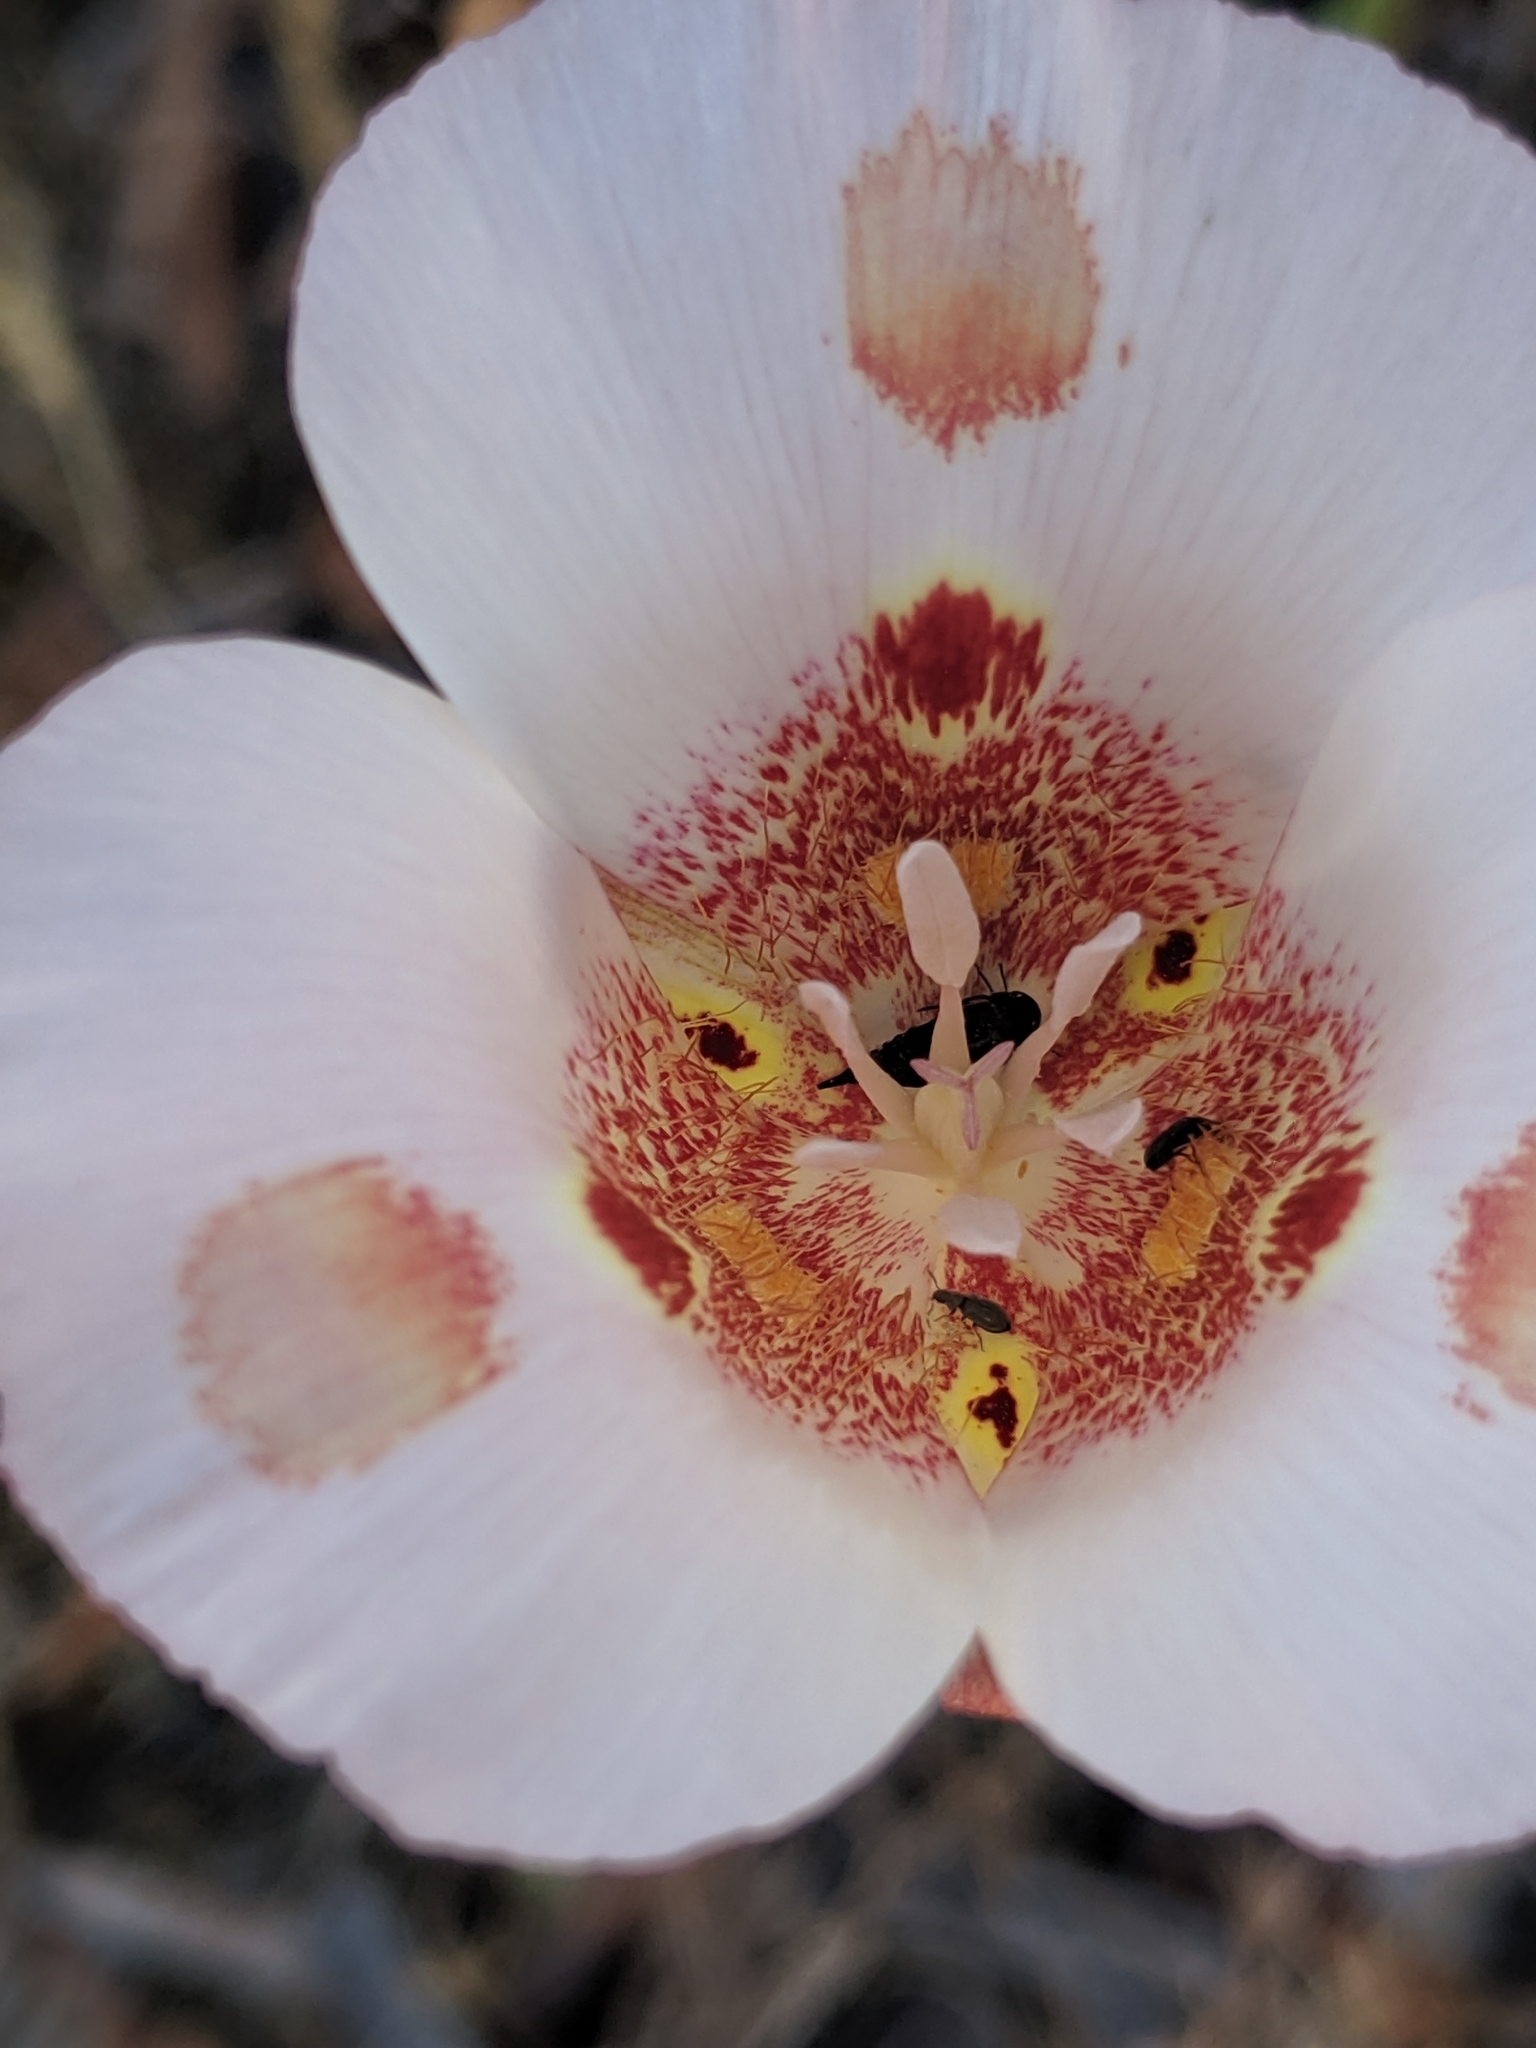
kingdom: Plantae
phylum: Tracheophyta
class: Liliopsida
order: Liliales
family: Liliaceae
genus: Calochortus
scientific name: Calochortus venustus
